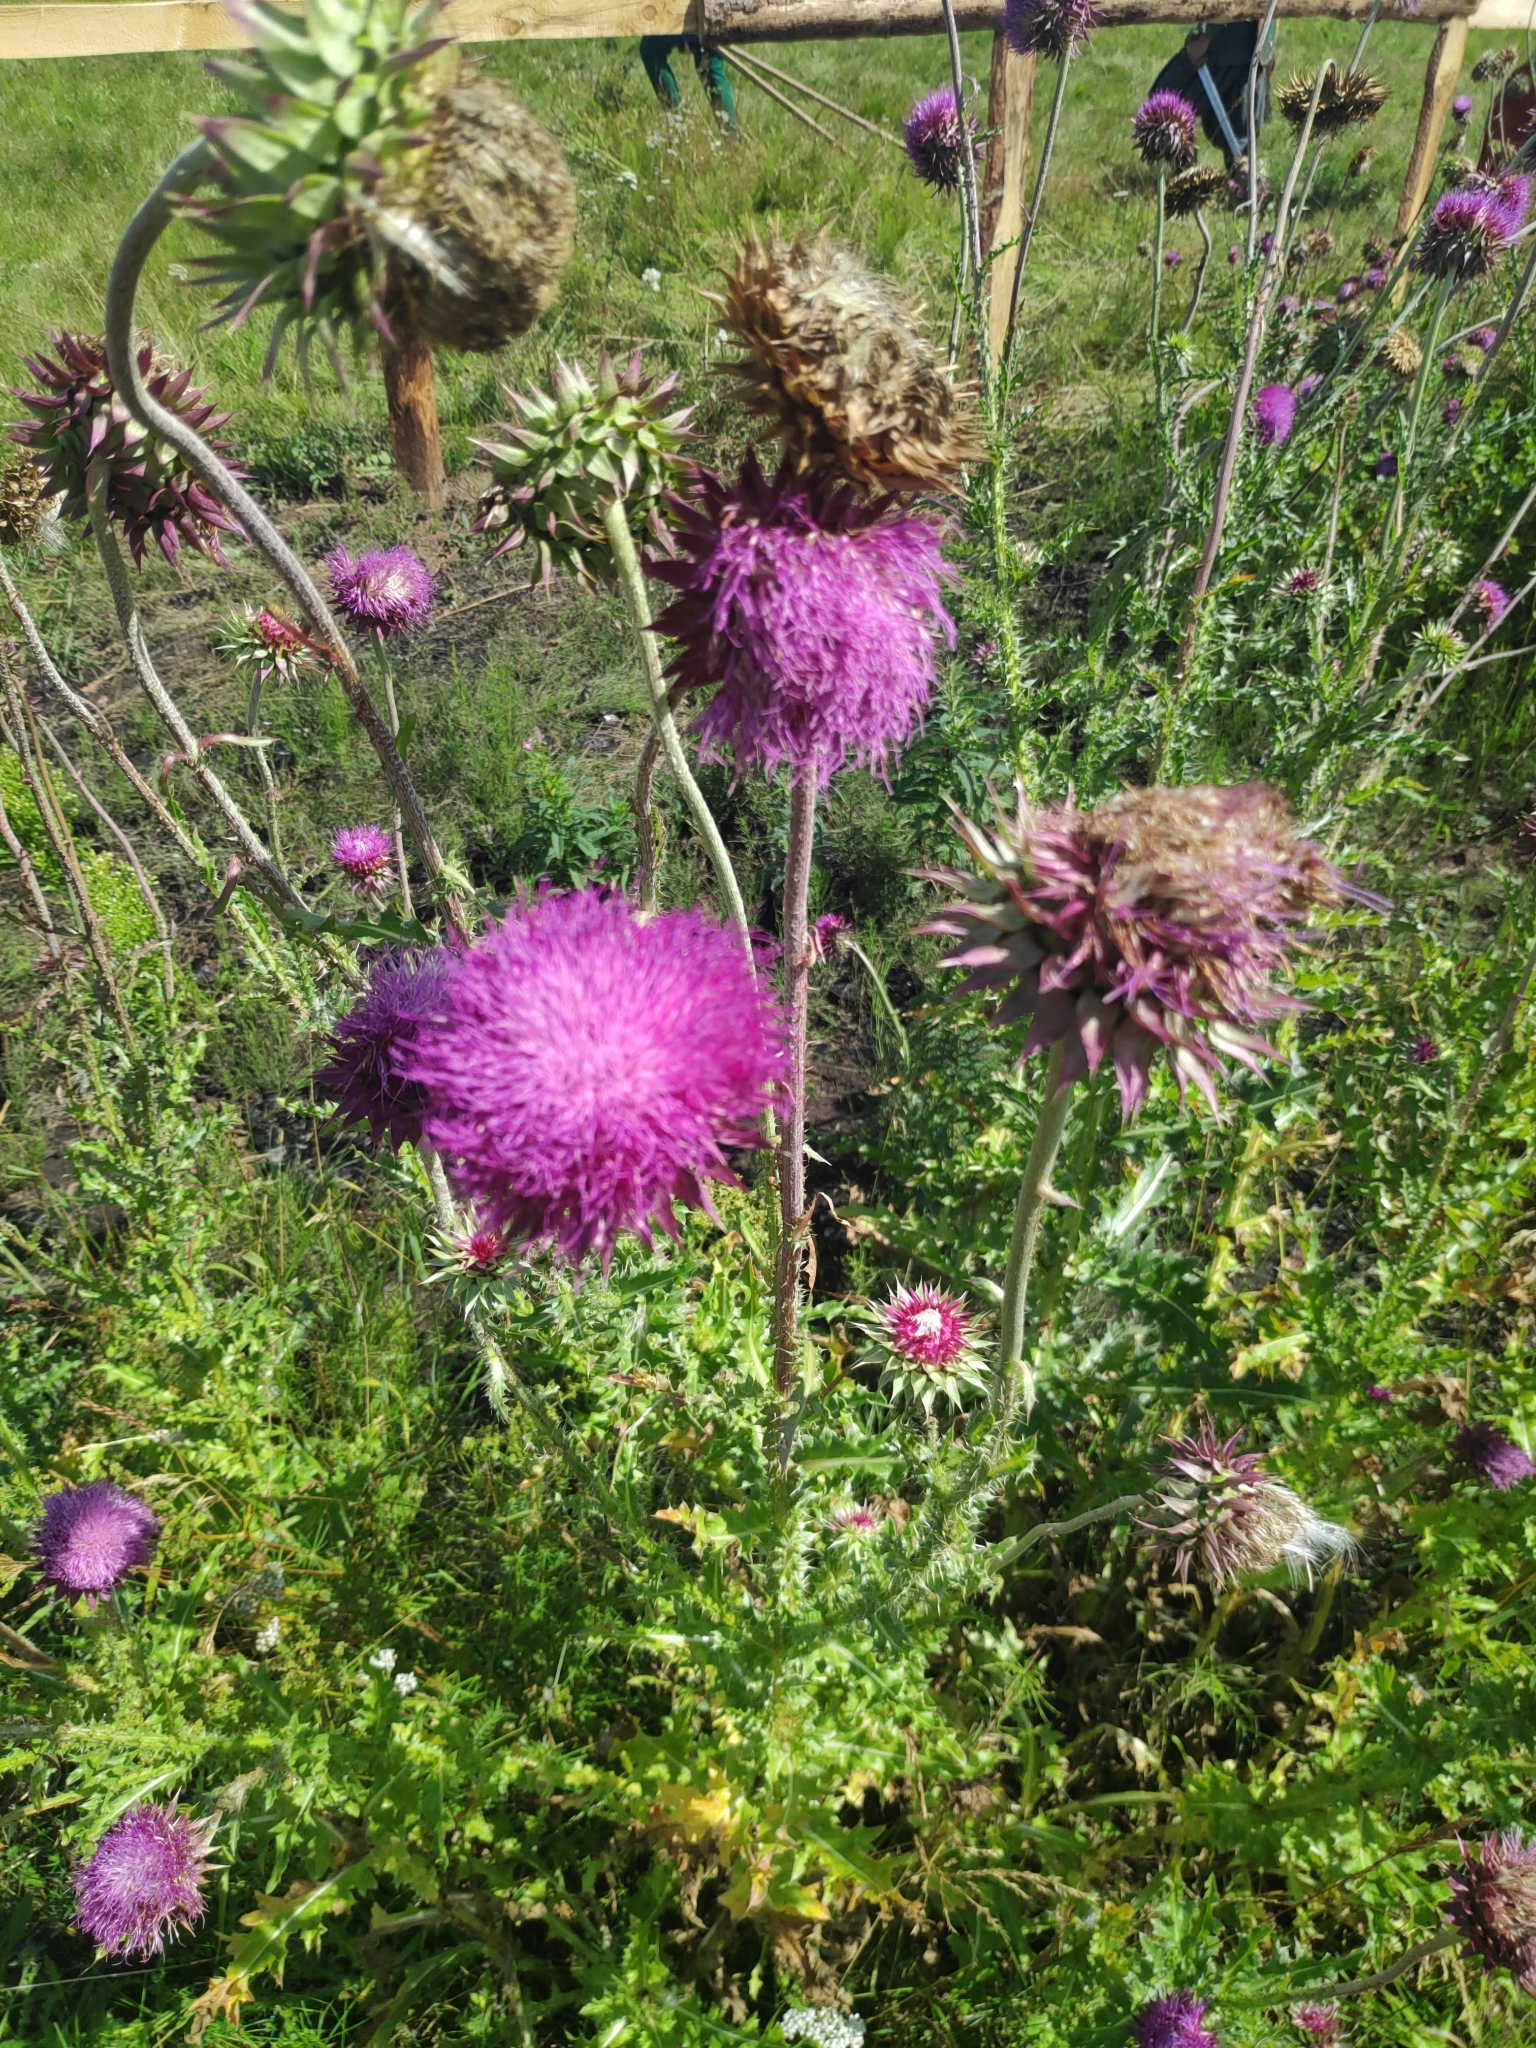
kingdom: Plantae
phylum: Tracheophyta
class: Magnoliopsida
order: Asterales
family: Asteraceae
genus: Carduus
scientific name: Carduus nutans
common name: Musk thistle
